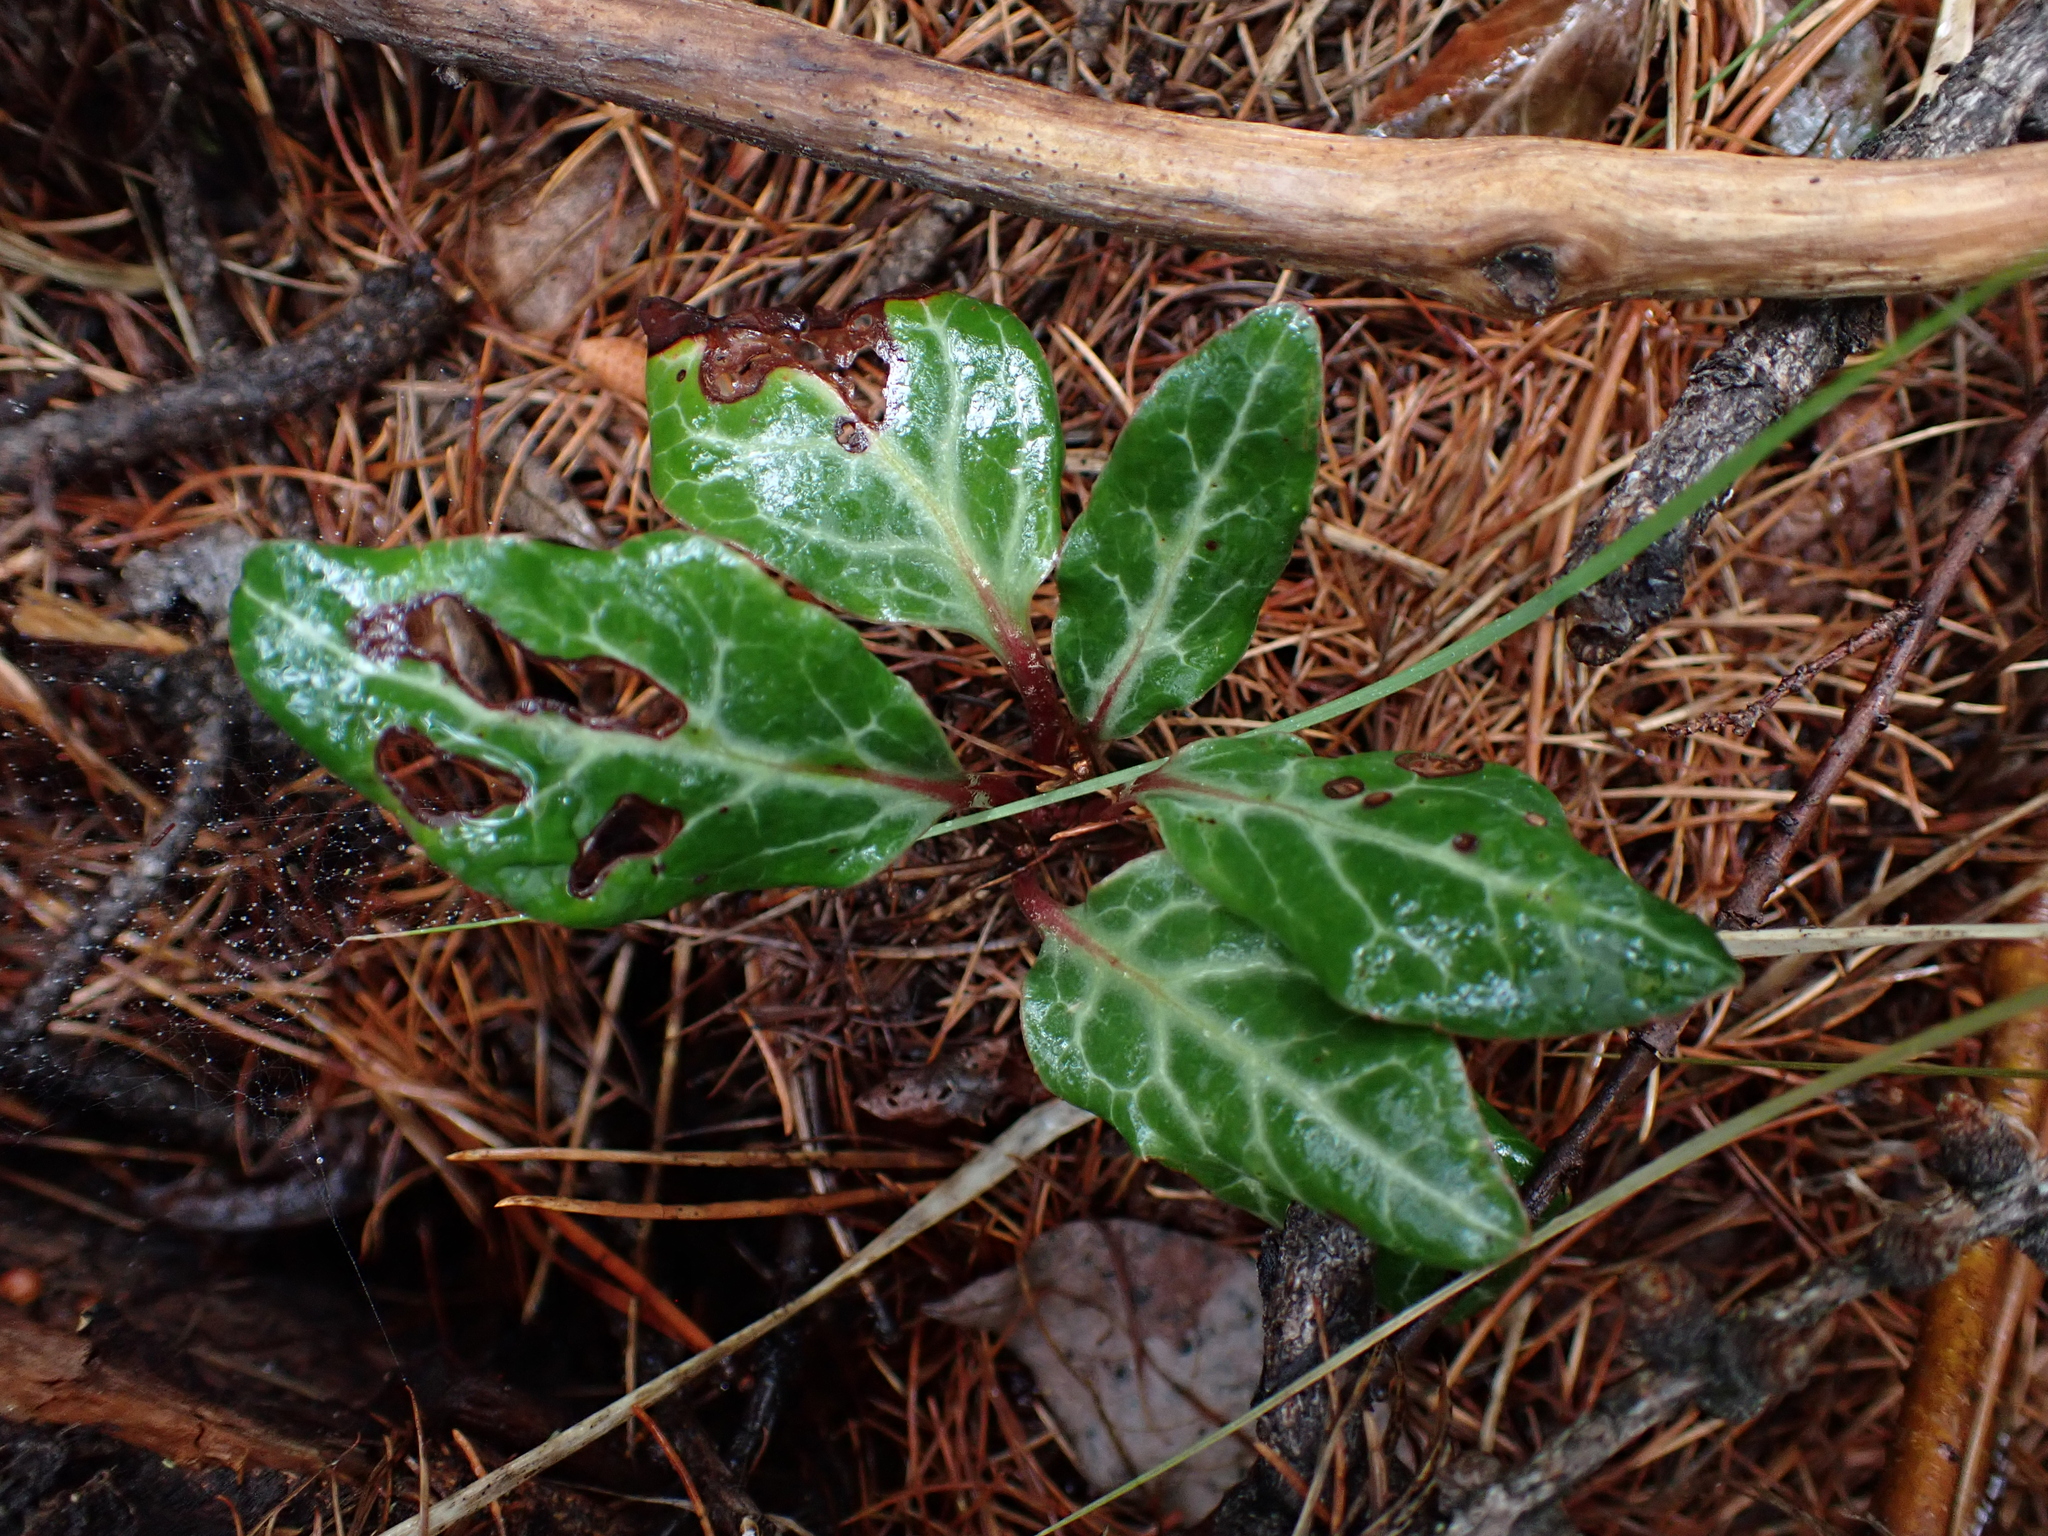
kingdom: Plantae
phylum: Tracheophyta
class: Magnoliopsida
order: Ericales
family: Ericaceae
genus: Pyrola
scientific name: Pyrola picta
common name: White-vein wintergreen
